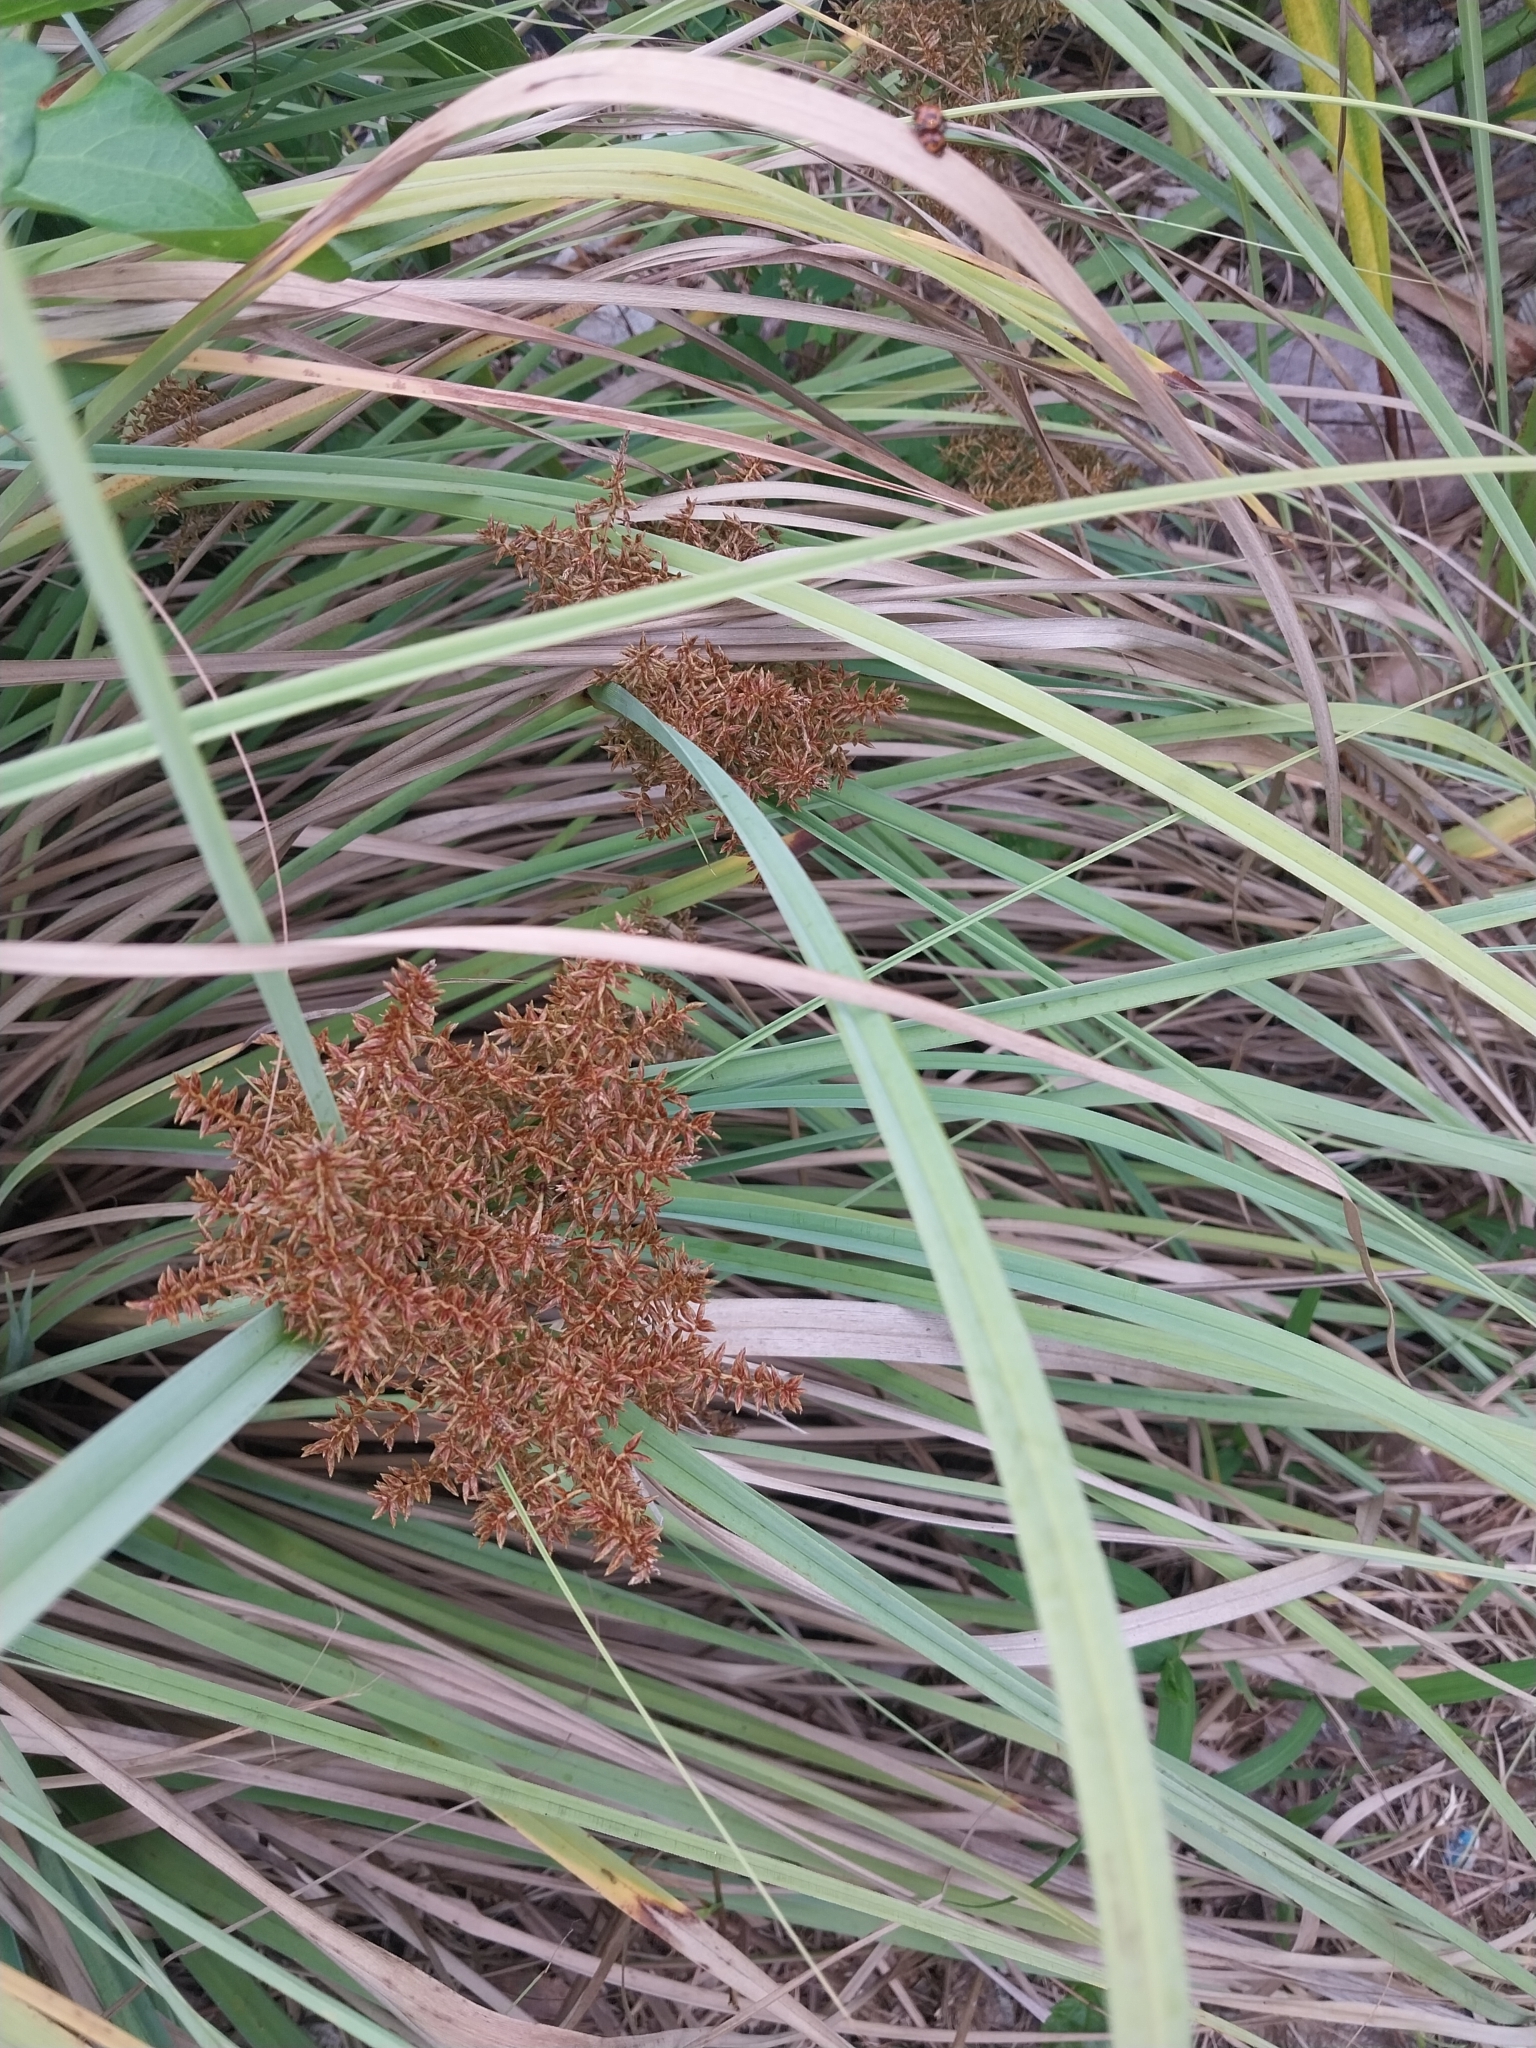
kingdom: Plantae
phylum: Tracheophyta
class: Liliopsida
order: Poales
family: Cyperaceae
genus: Cyperus
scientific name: Cyperus javanicus
